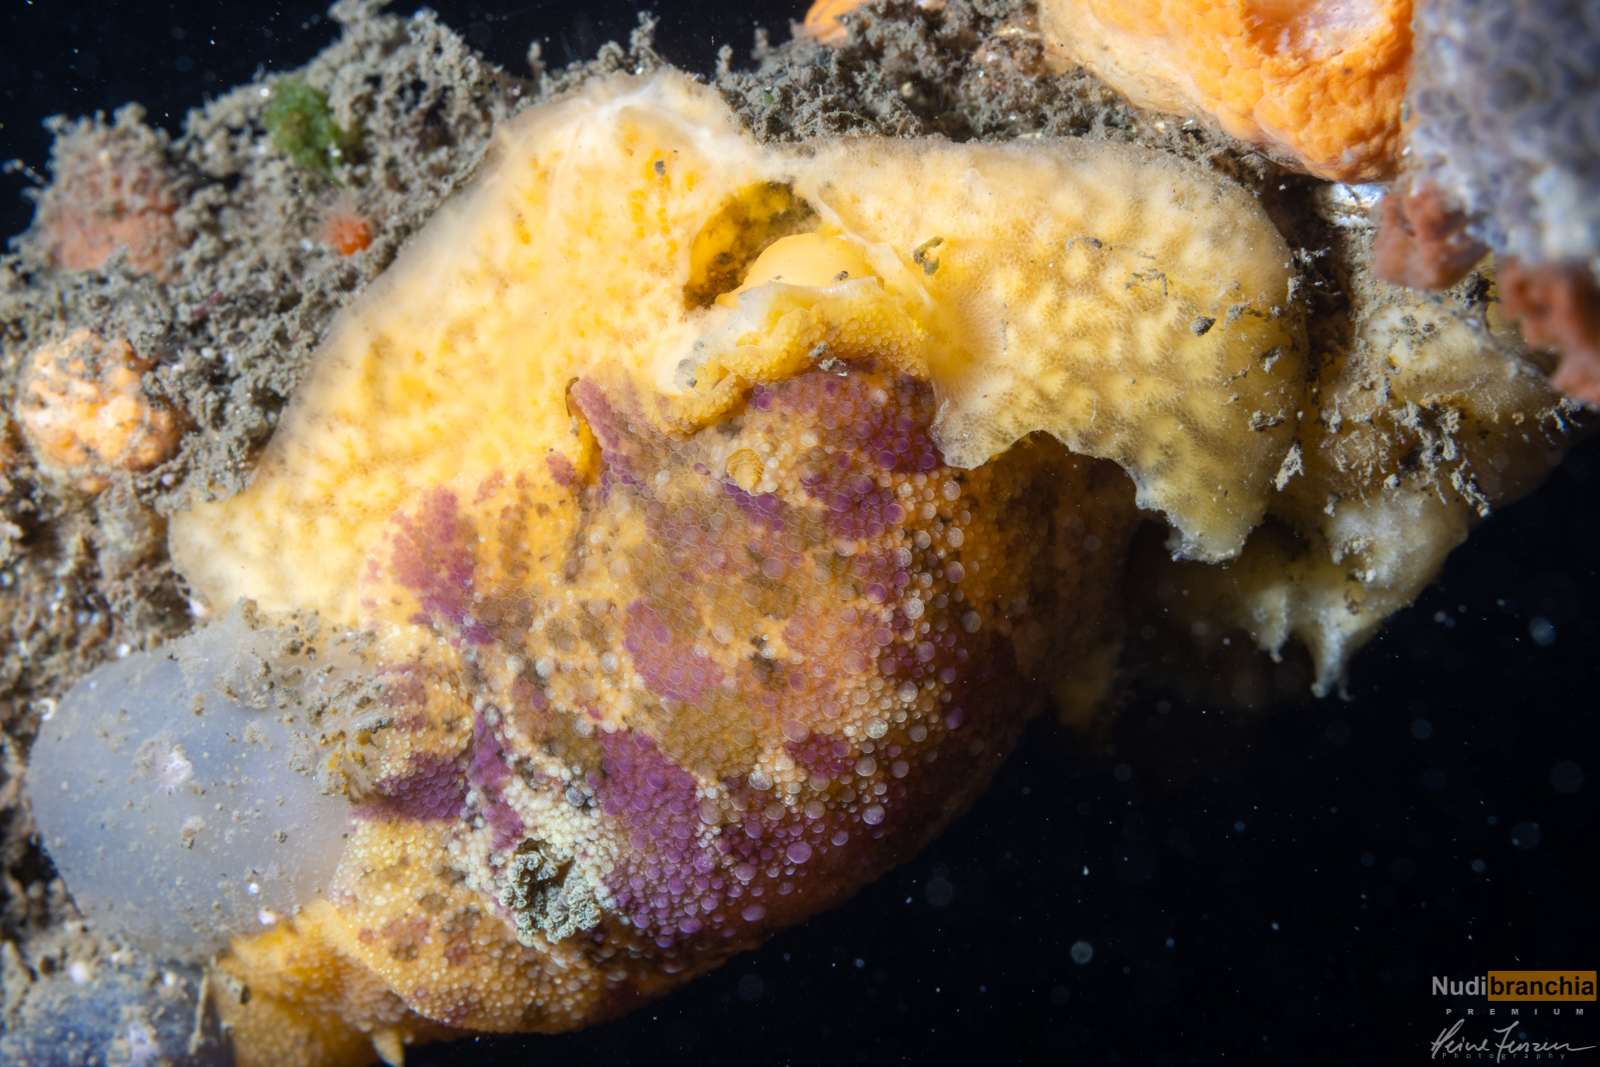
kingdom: Animalia
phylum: Mollusca
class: Gastropoda
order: Nudibranchia
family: Dorididae
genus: Doris
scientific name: Doris pseudoargus
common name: Sea lemon
